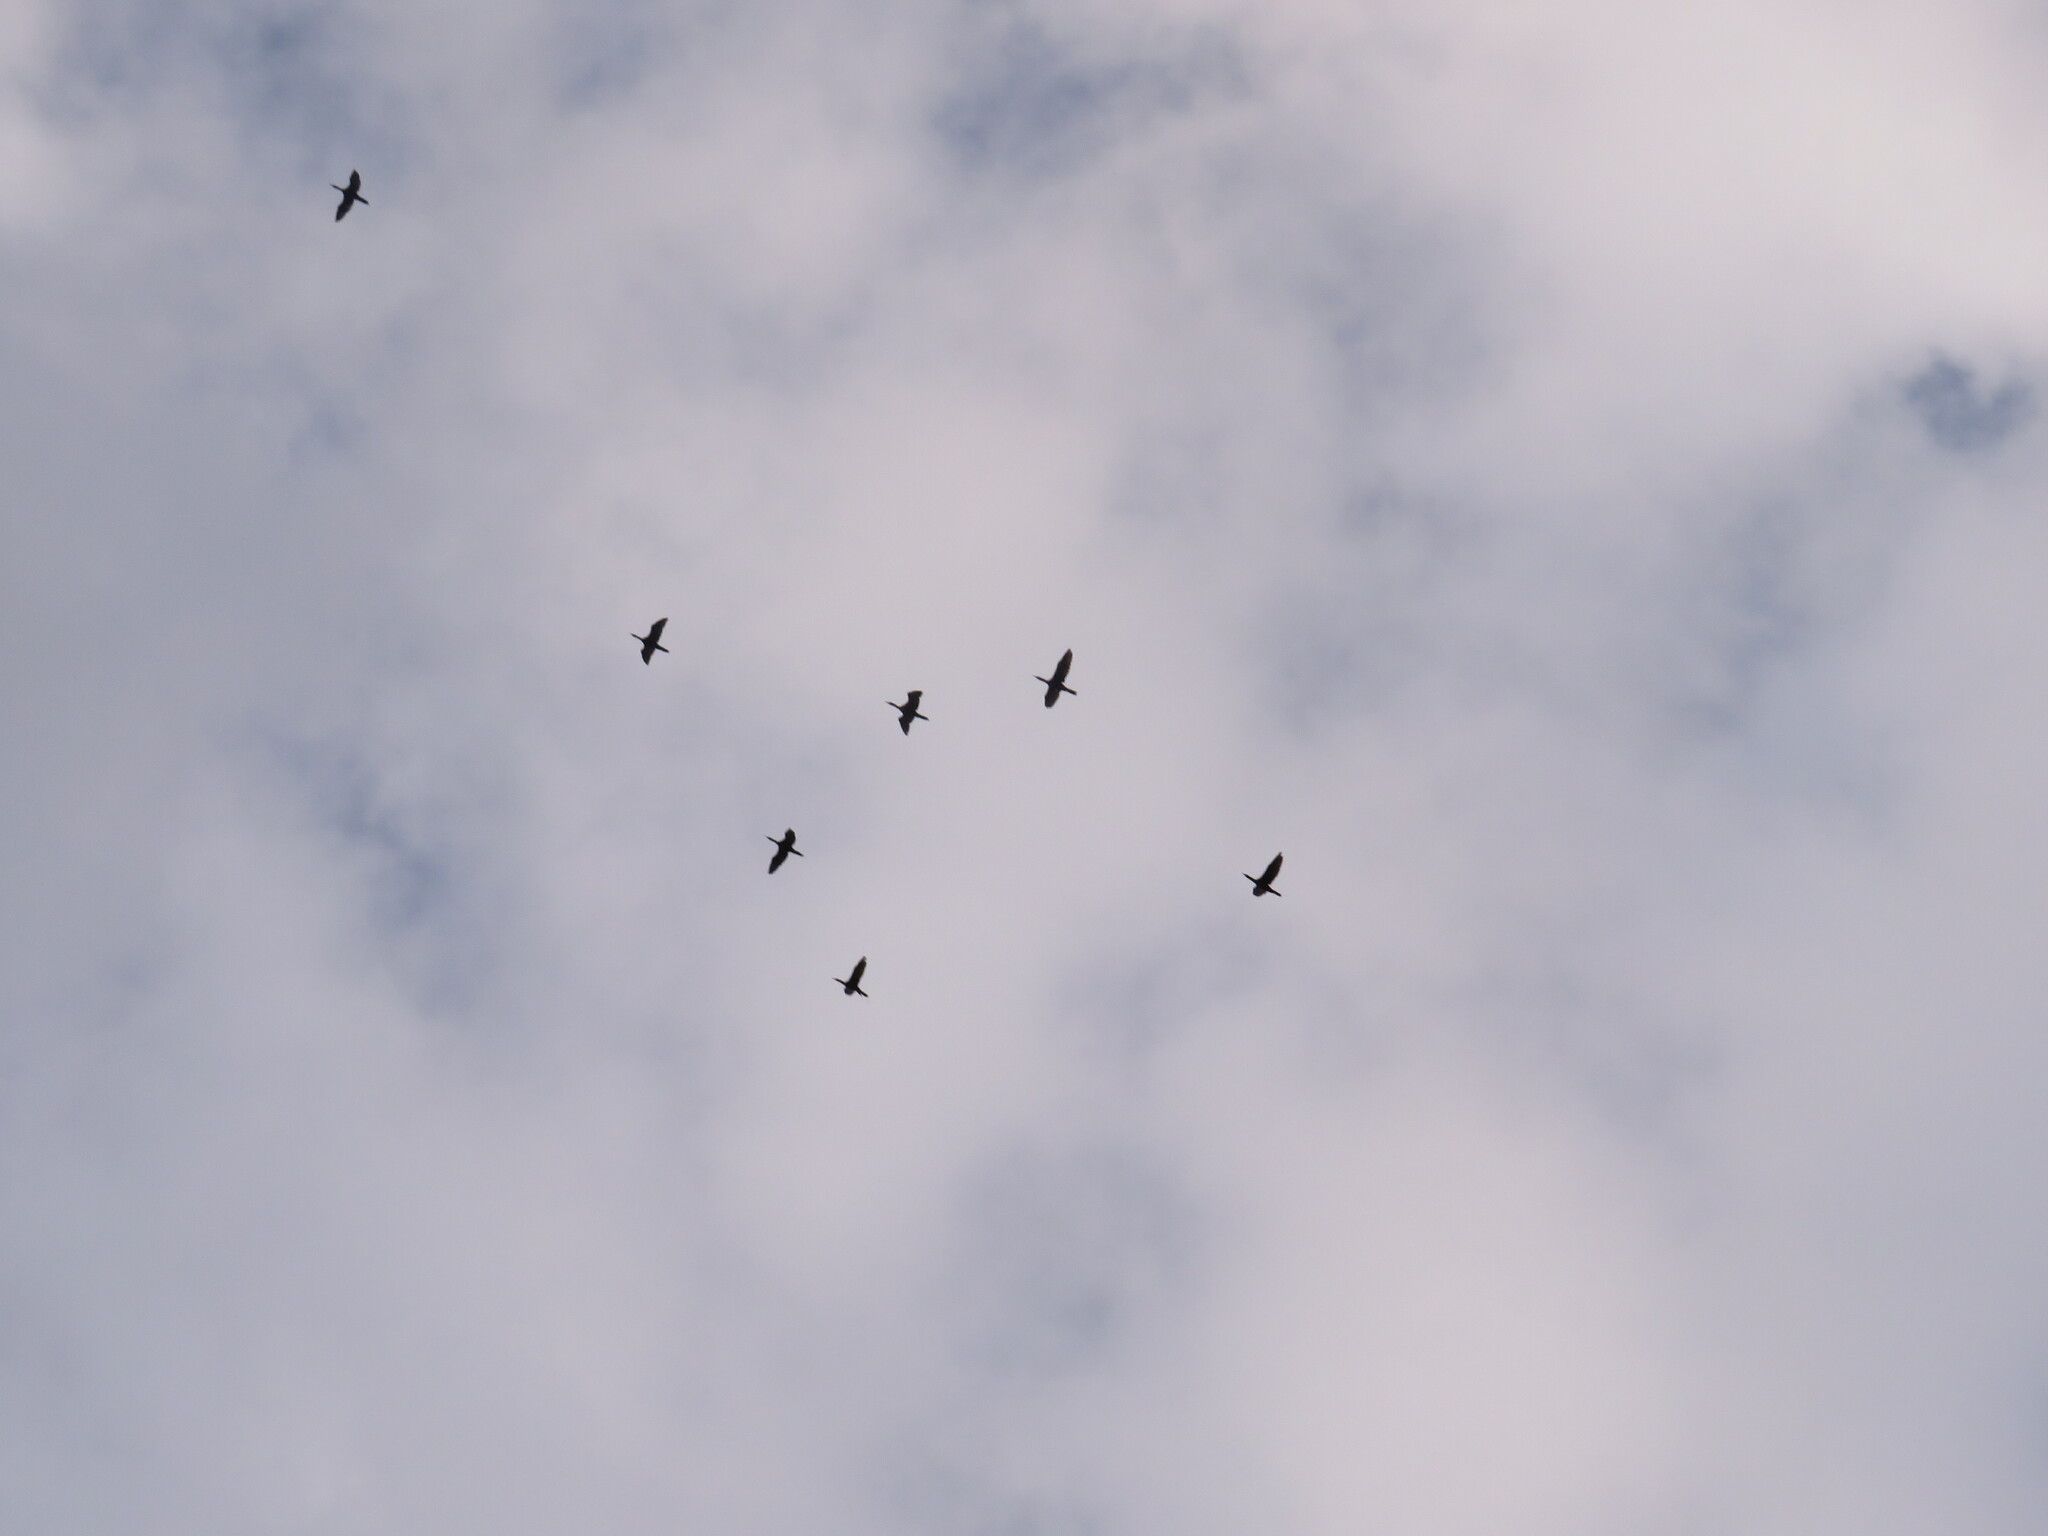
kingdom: Animalia
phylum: Chordata
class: Aves
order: Suliformes
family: Phalacrocoracidae
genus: Phalacrocorax
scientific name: Phalacrocorax brasilianus
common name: Neotropic cormorant
